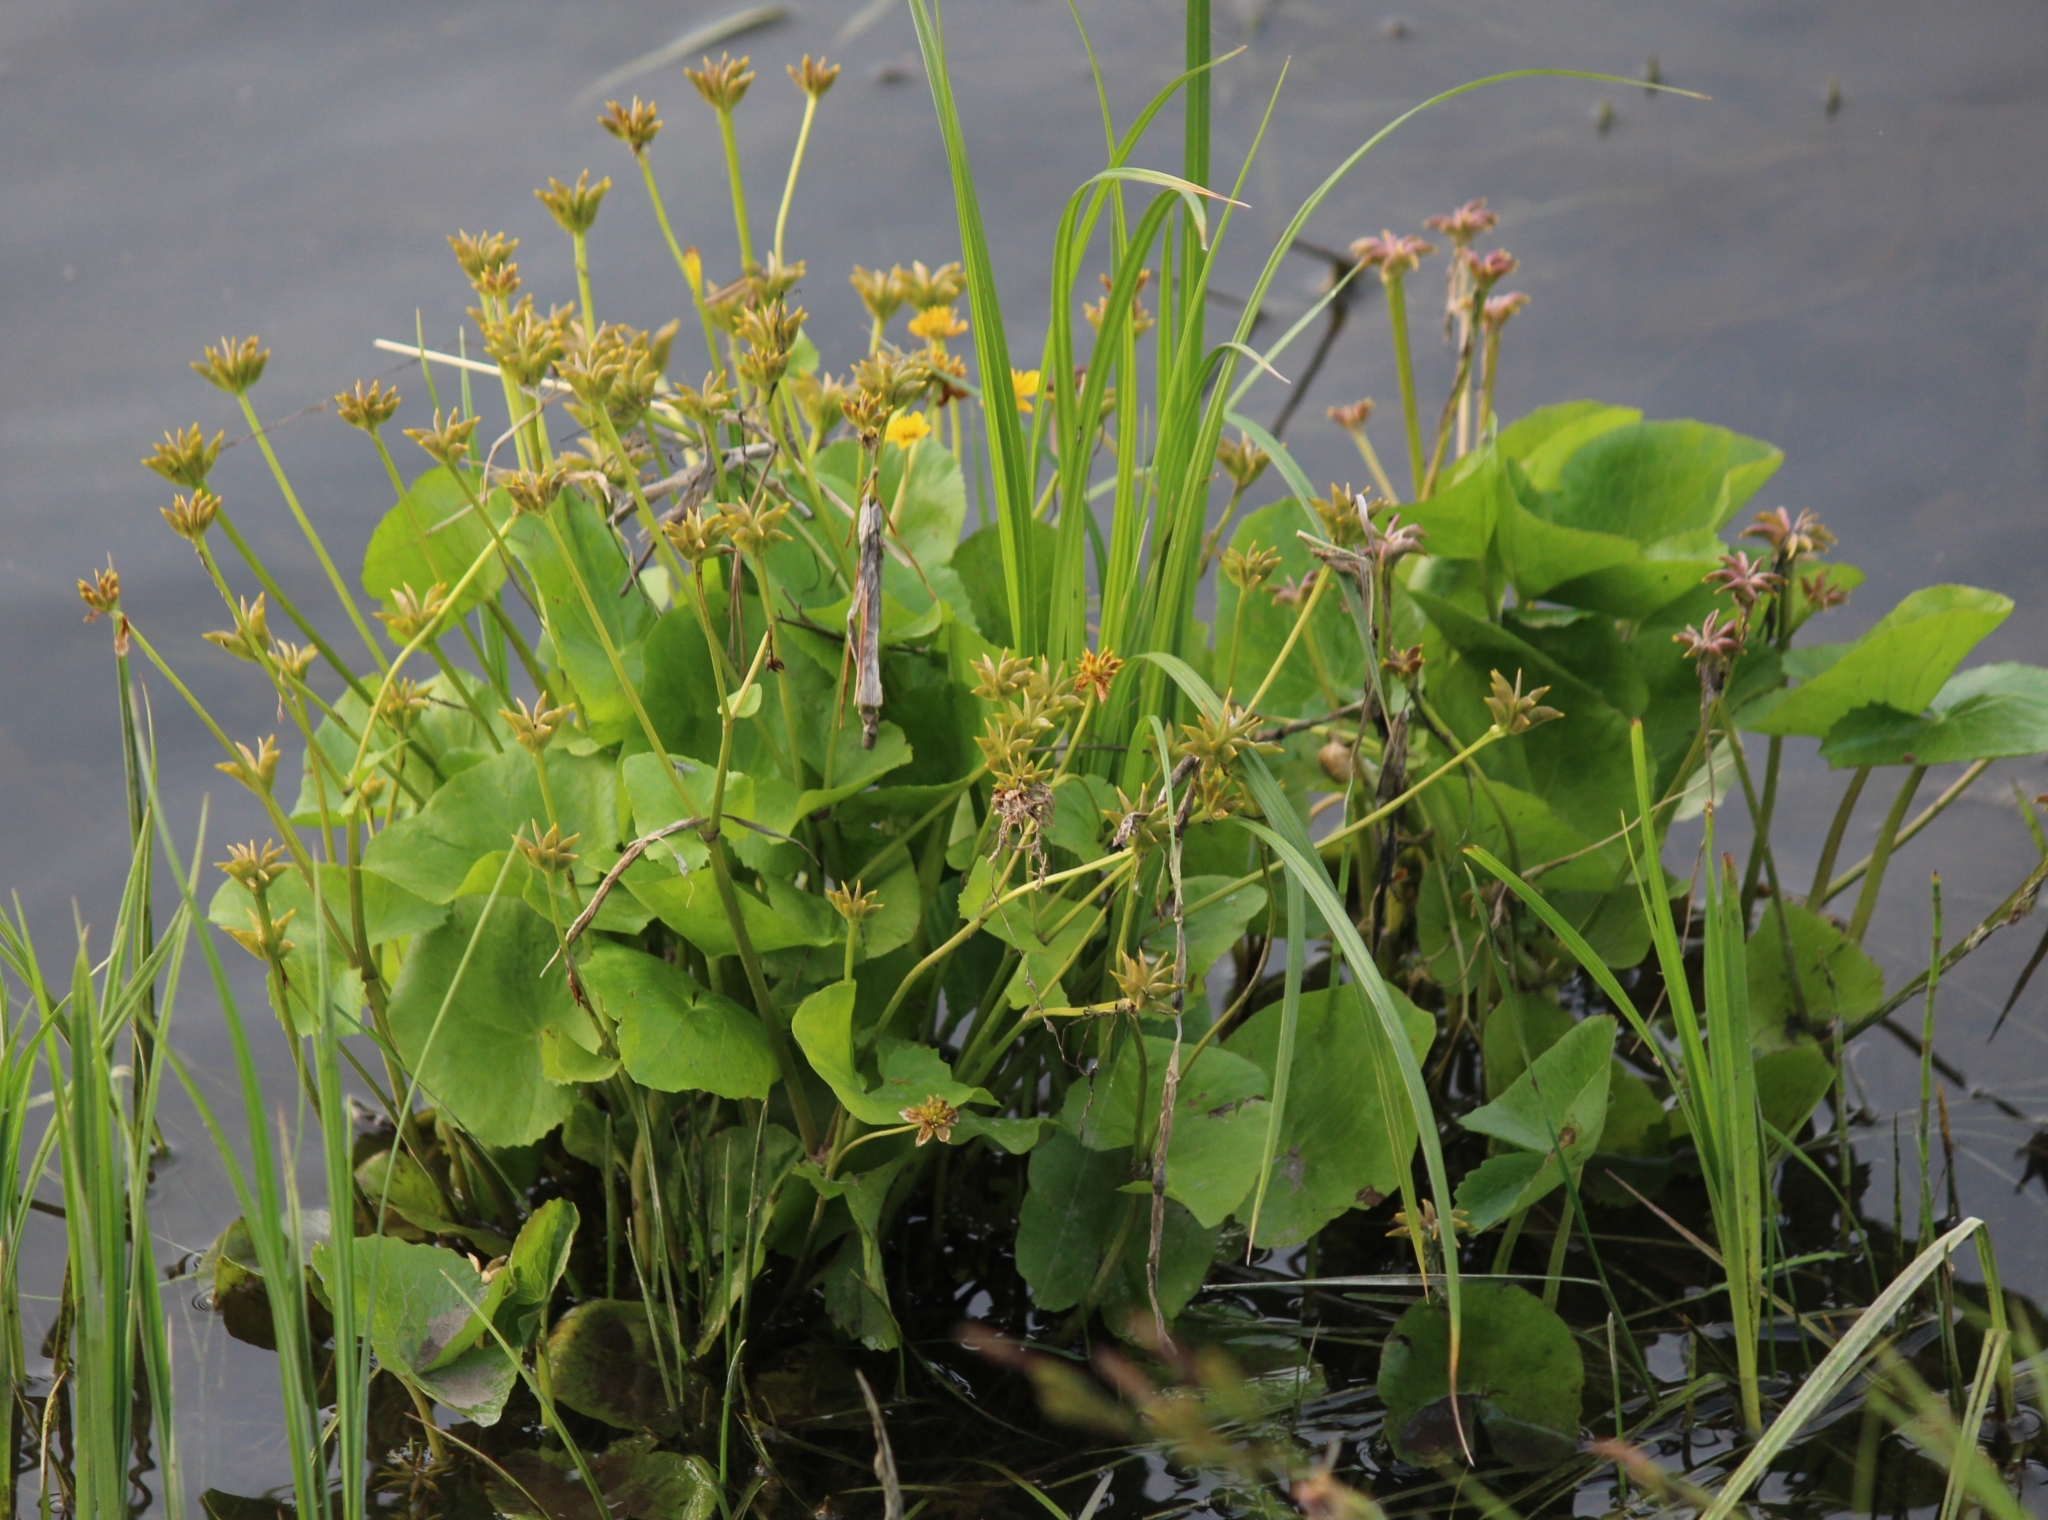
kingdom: Plantae
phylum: Tracheophyta
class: Magnoliopsida
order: Ranunculales
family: Ranunculaceae
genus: Caltha
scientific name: Caltha palustris
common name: Marsh marigold
